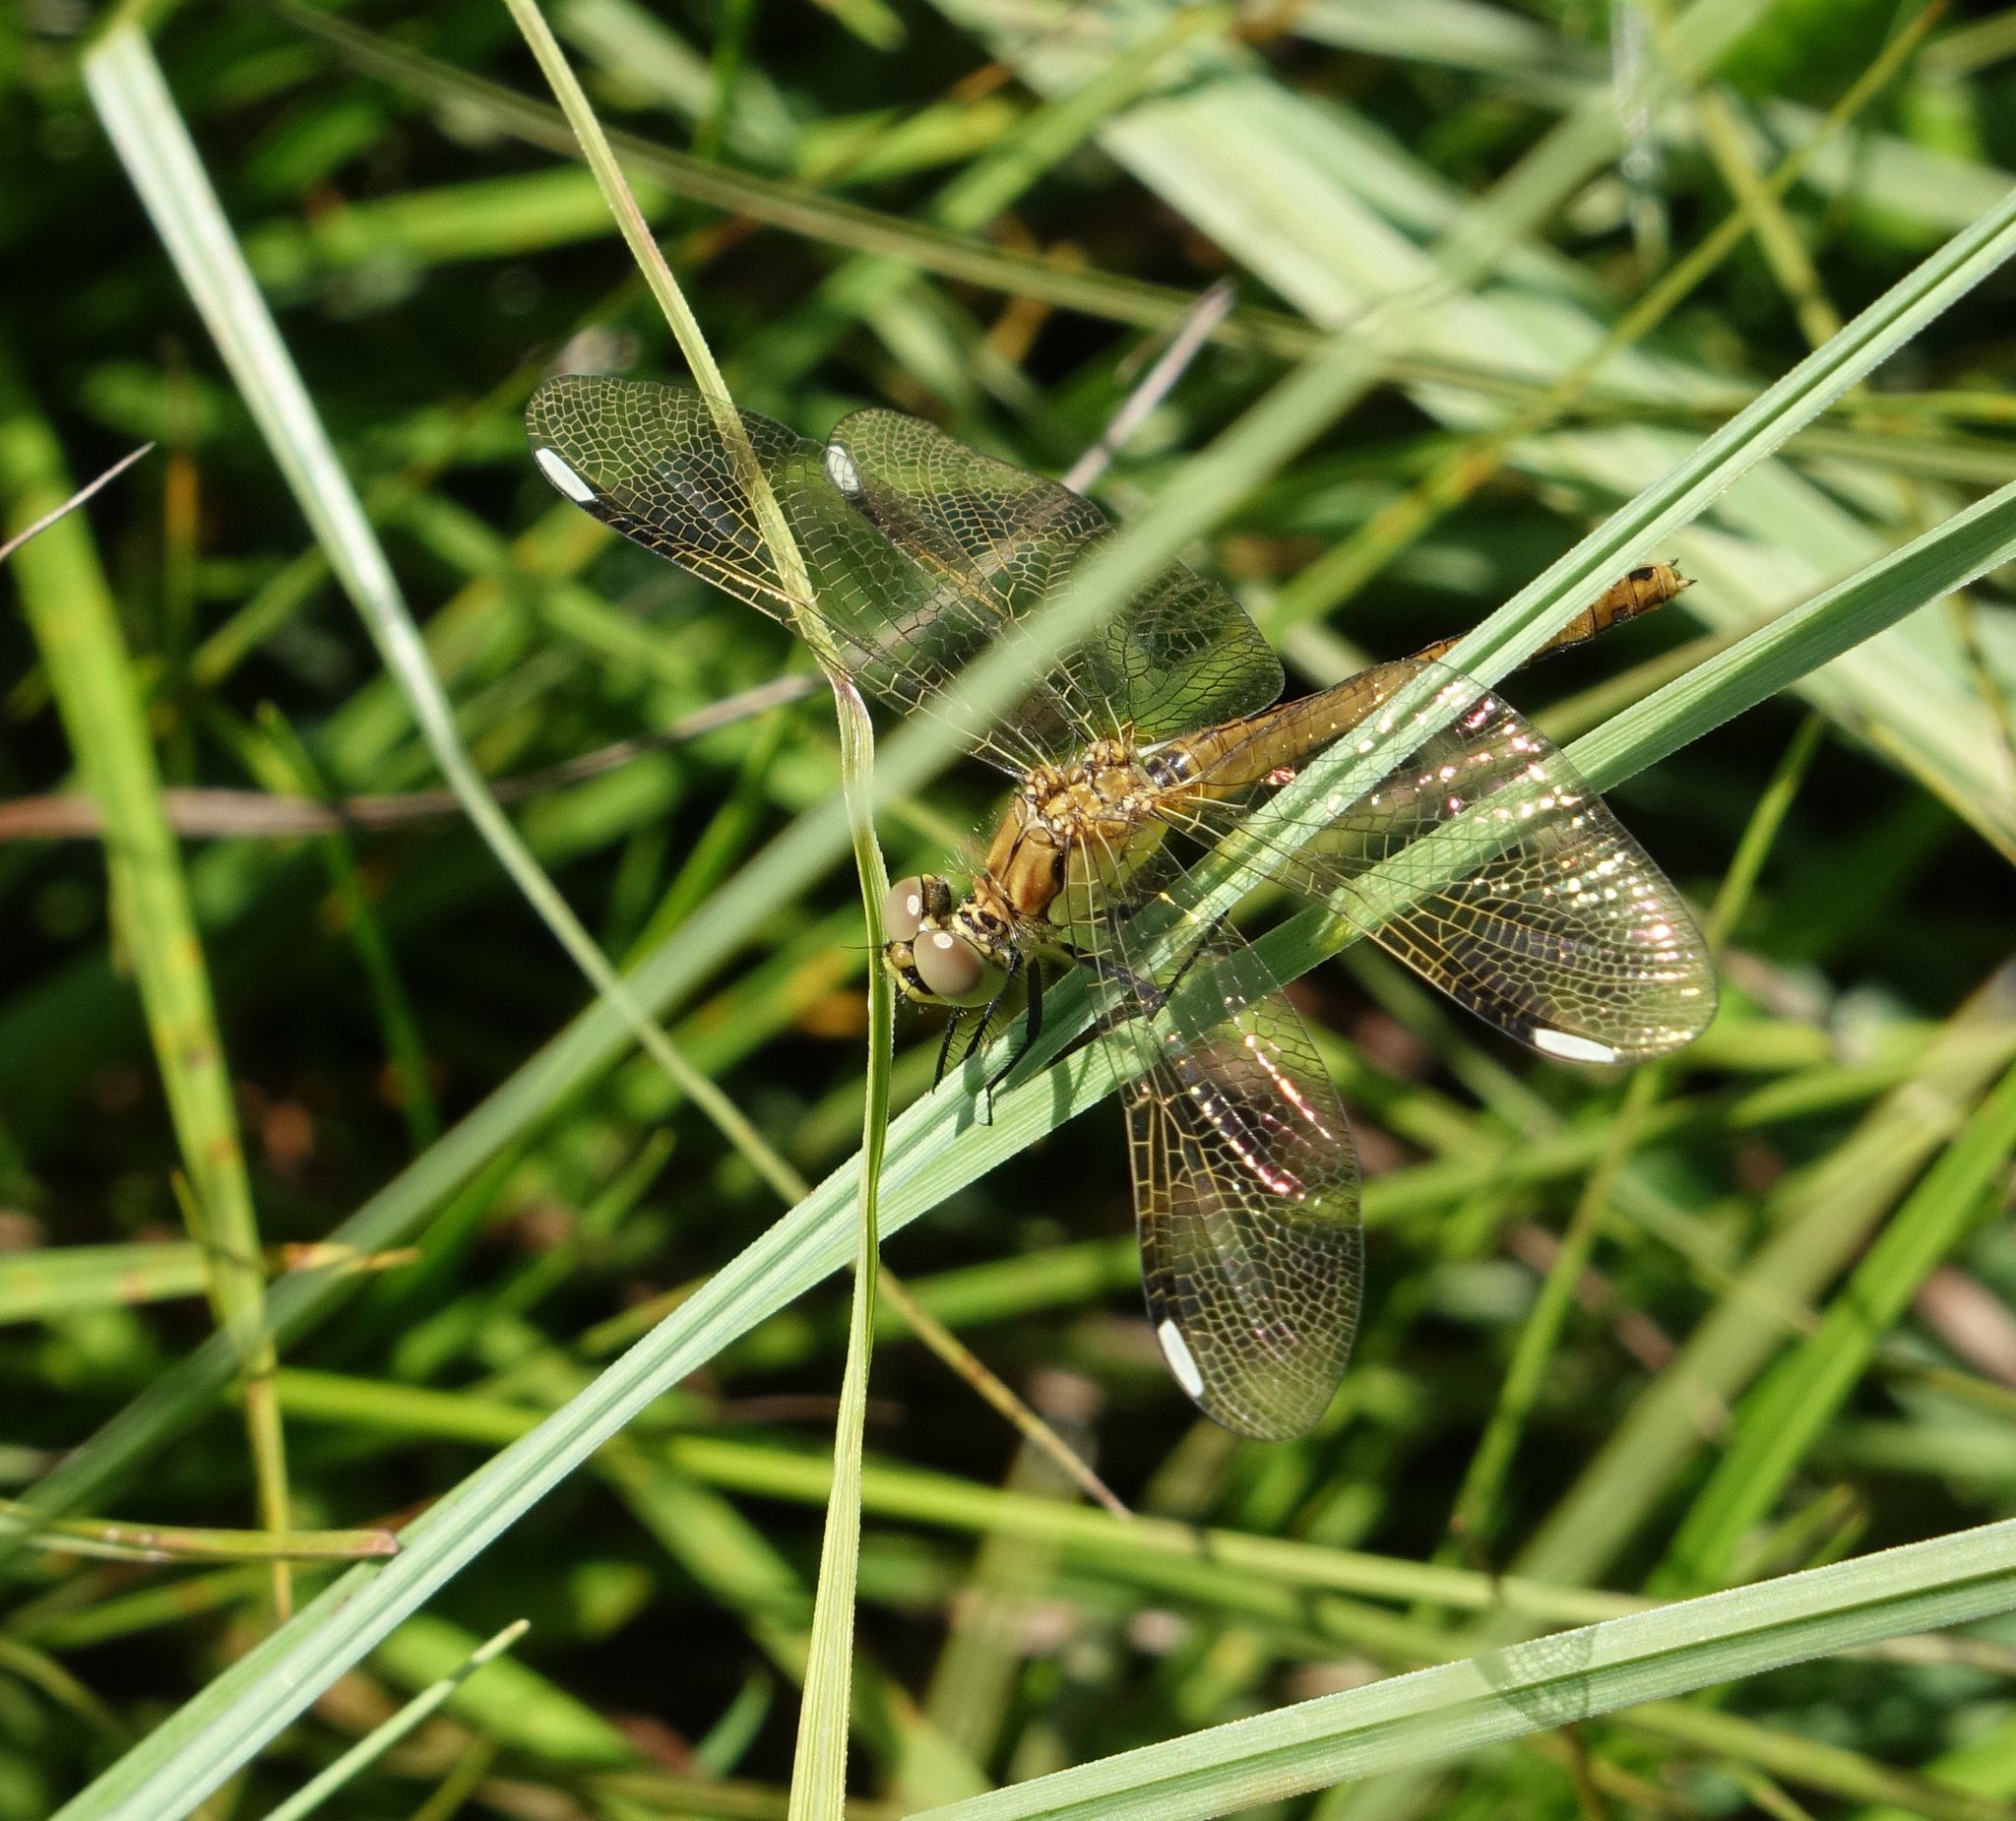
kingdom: Animalia
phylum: Arthropoda
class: Insecta
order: Odonata
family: Libellulidae
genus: Sympetrum
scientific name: Sympetrum pedemontanum
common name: Banded darter
